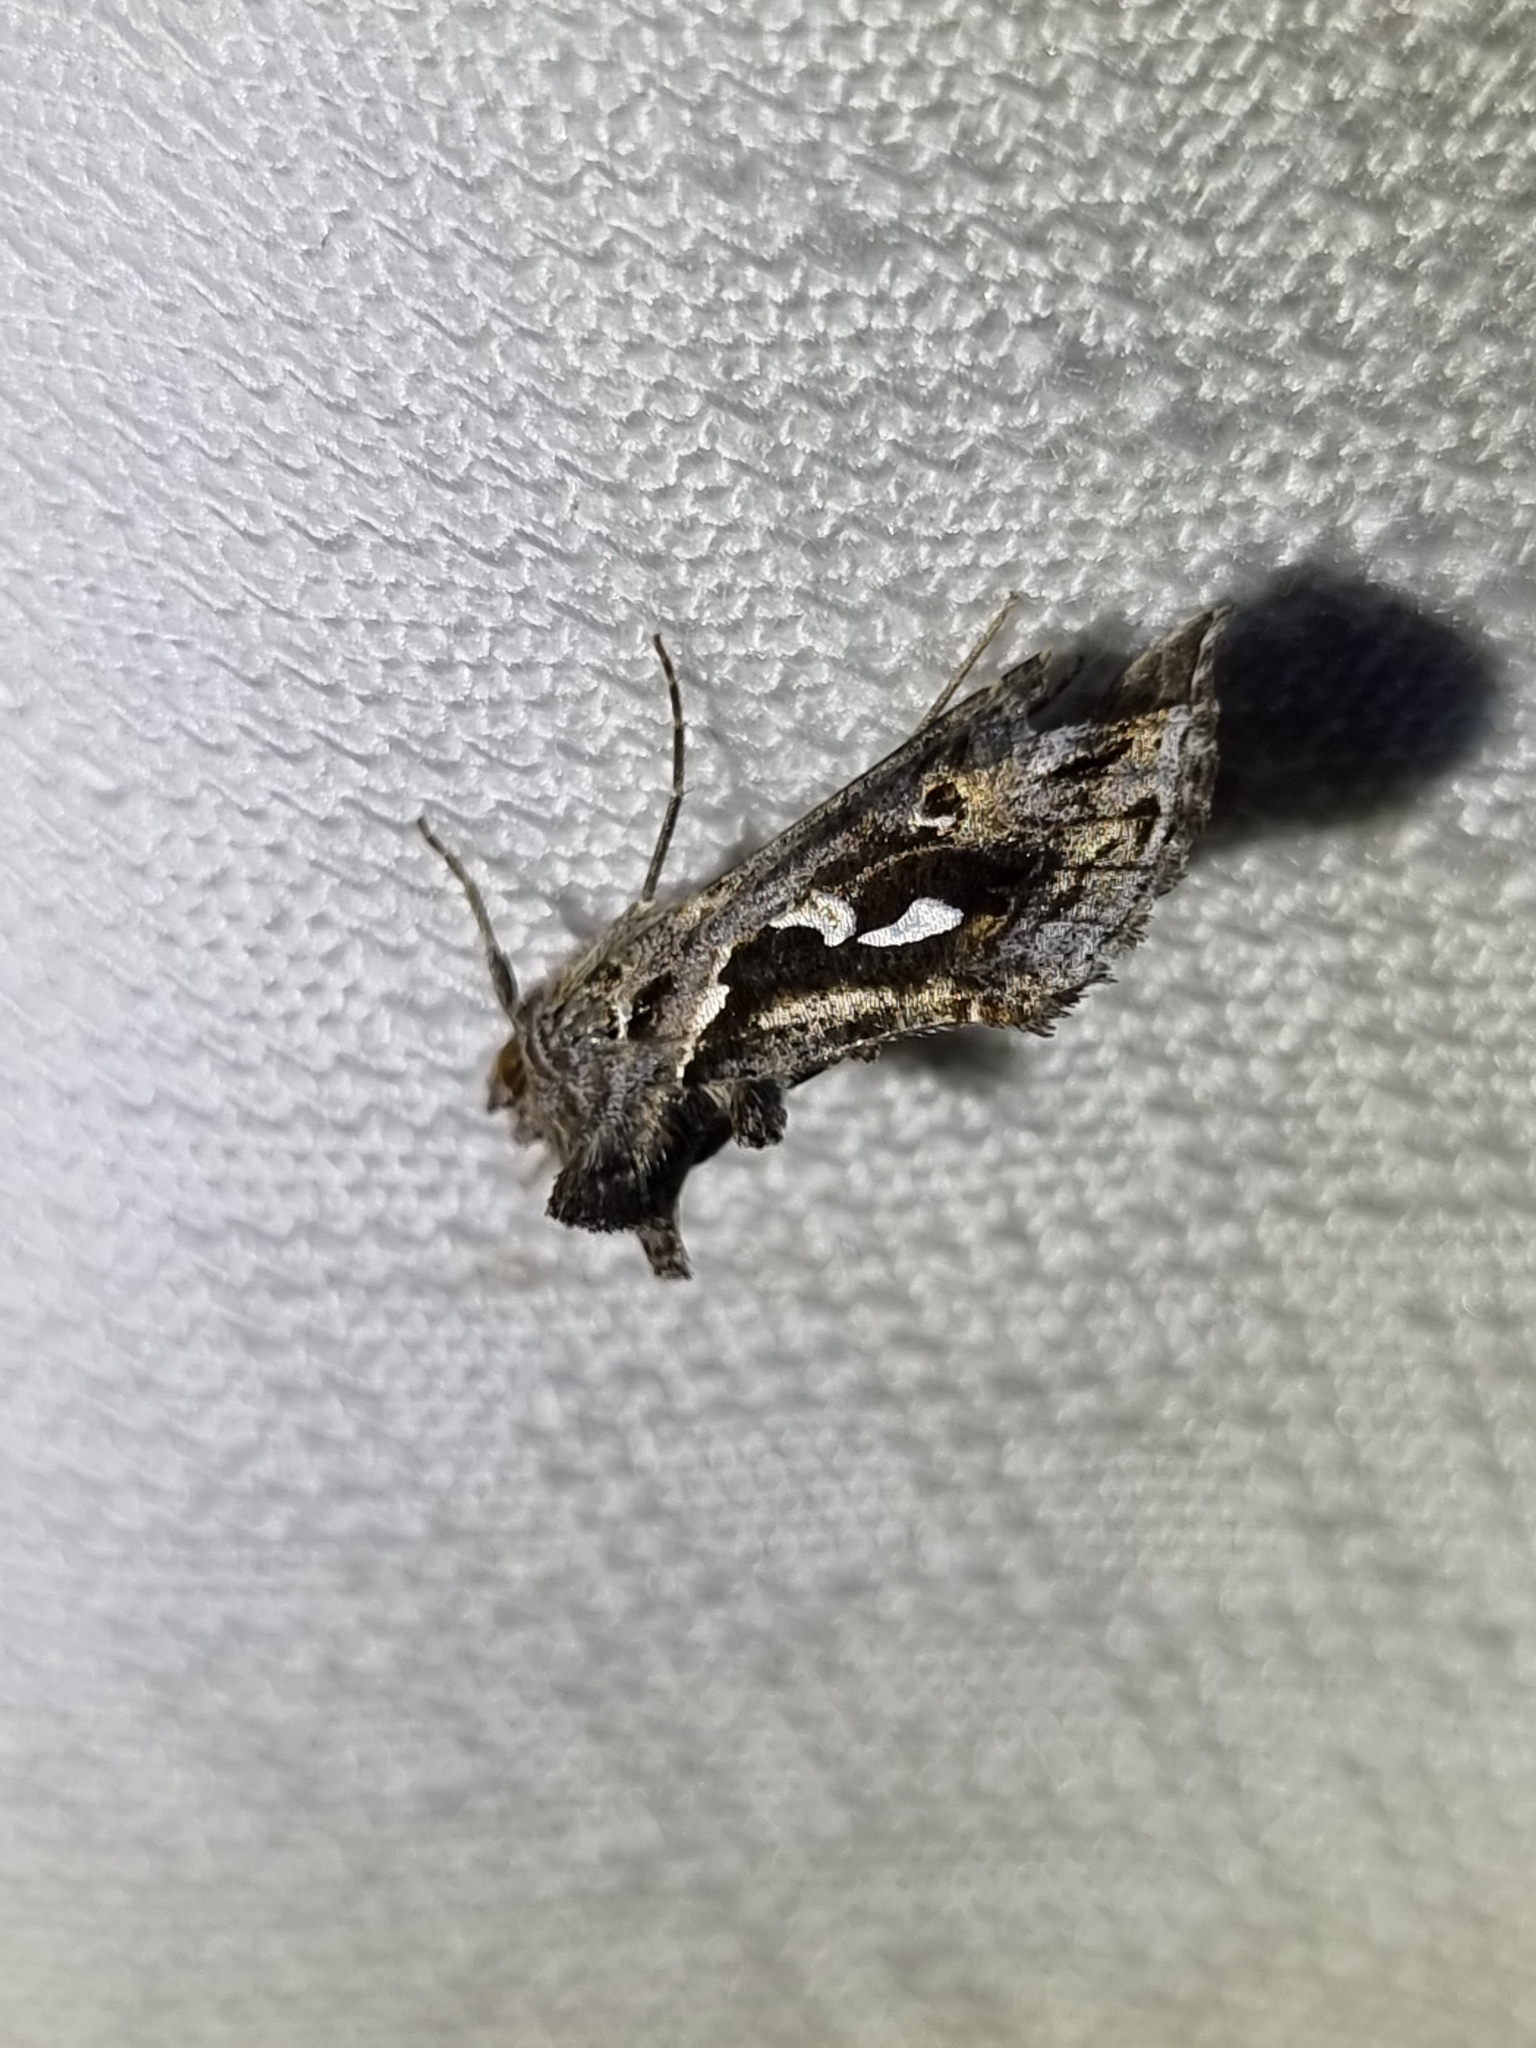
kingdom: Animalia
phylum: Arthropoda
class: Insecta
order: Lepidoptera
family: Noctuidae
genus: Chrysodeixis
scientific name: Chrysodeixis argentifera
